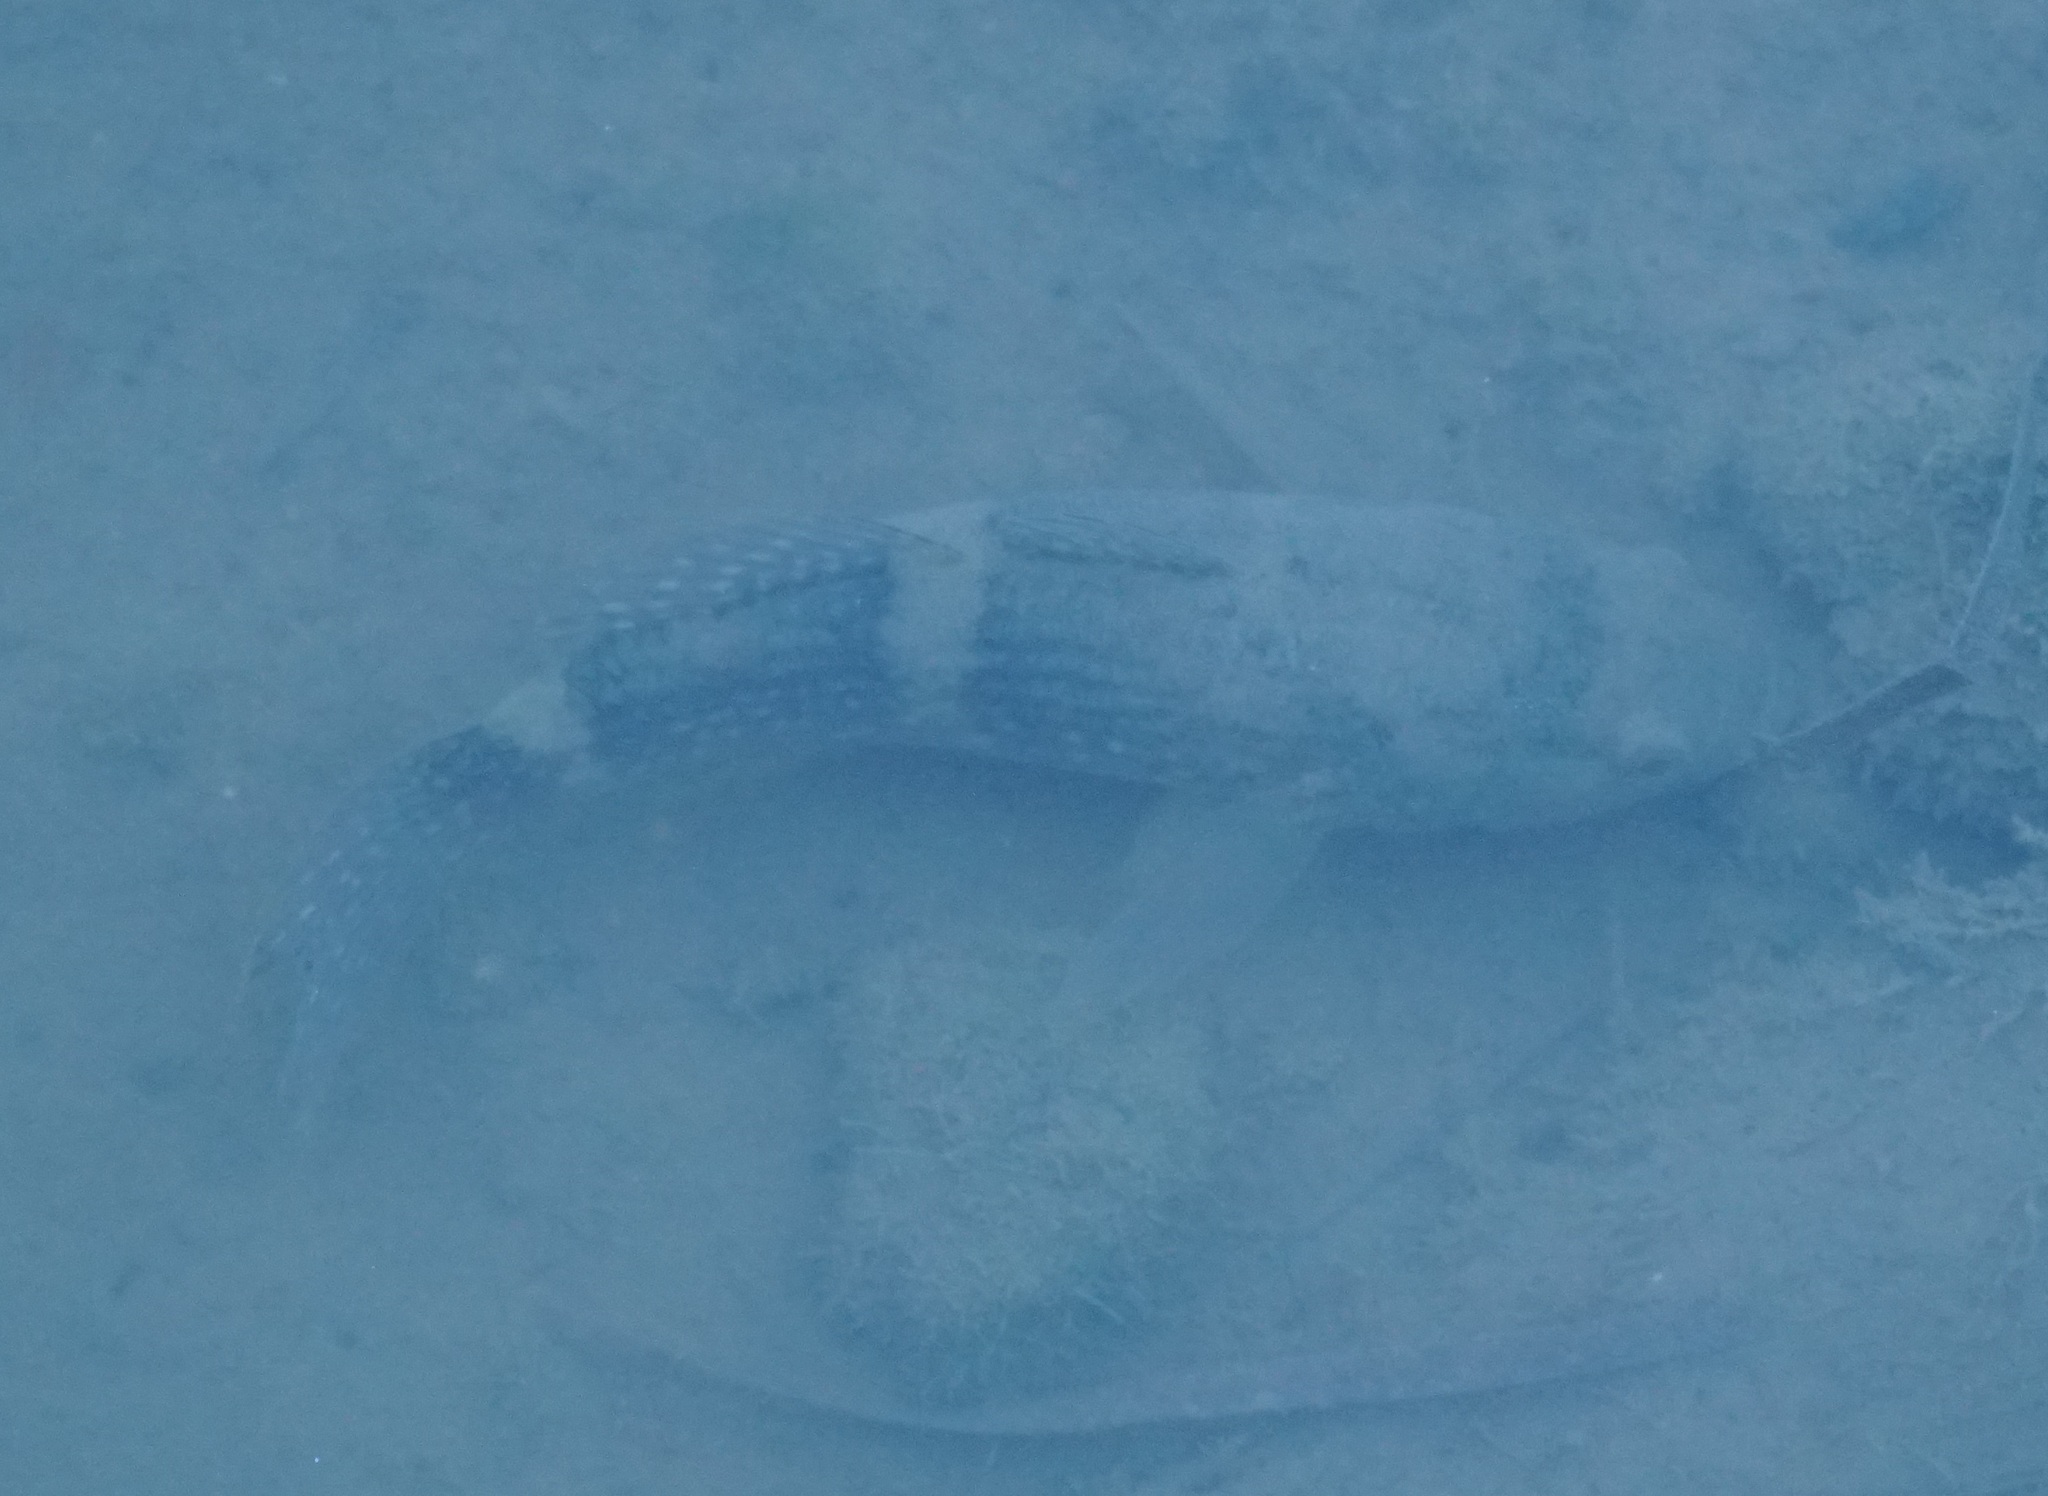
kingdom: Animalia
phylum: Chordata
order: Perciformes
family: Eleotridae
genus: Ophiocara
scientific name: Ophiocara porocephala
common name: Spangled gudgeon
